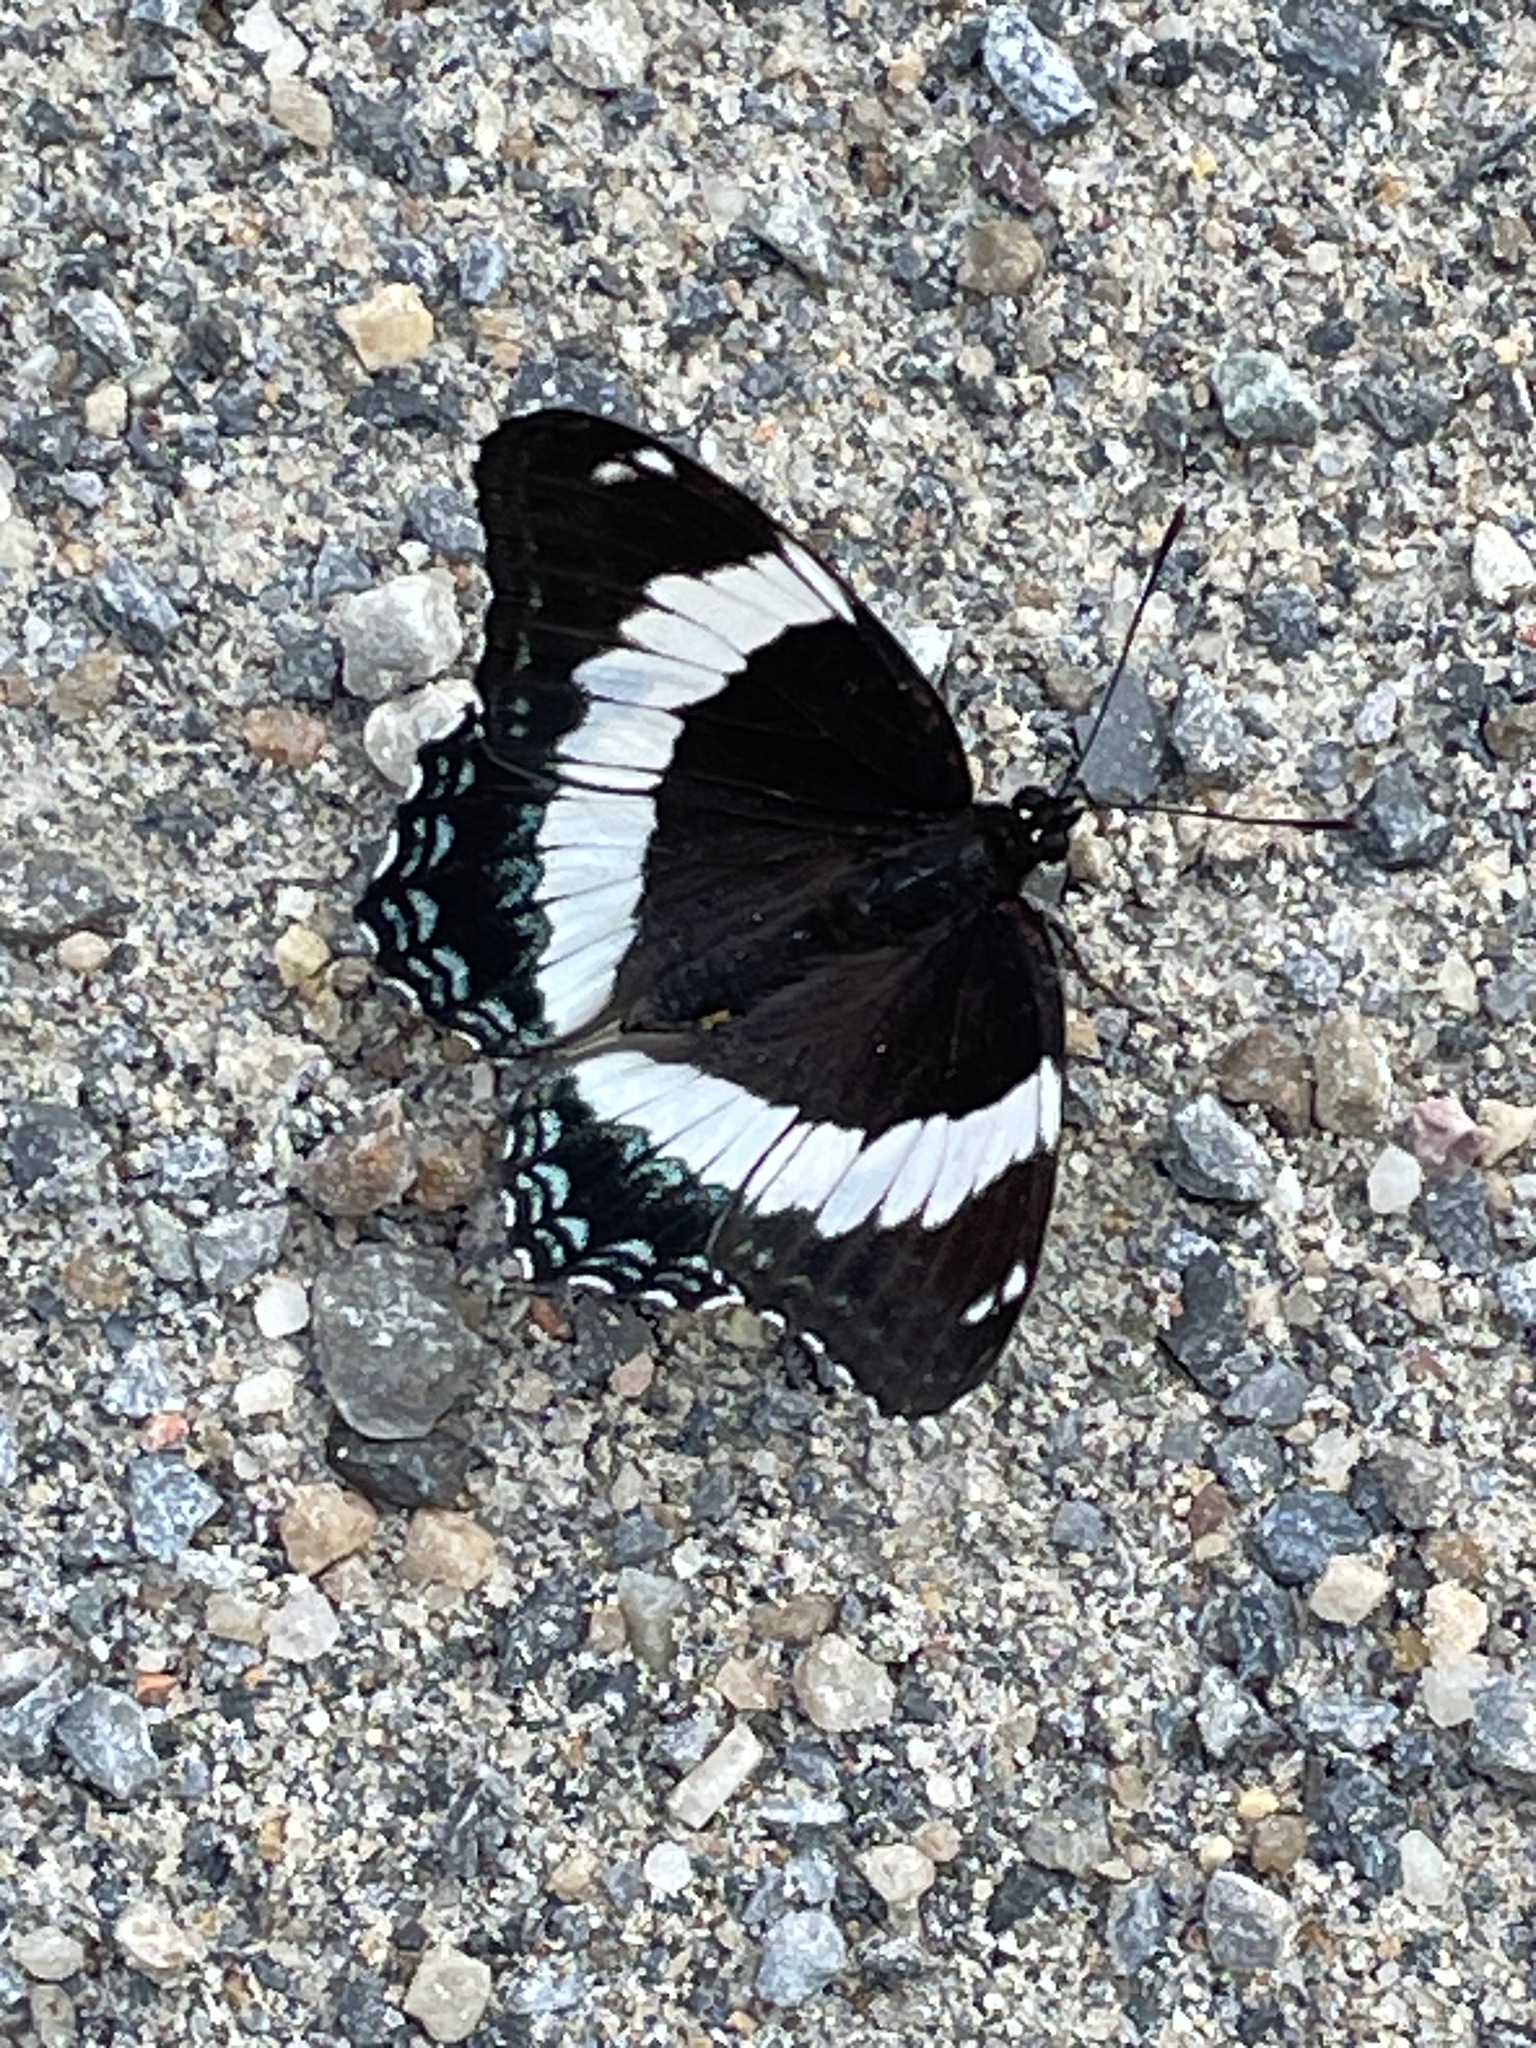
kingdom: Animalia
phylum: Arthropoda
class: Insecta
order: Lepidoptera
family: Nymphalidae
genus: Limenitis
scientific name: Limenitis arthemis
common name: Red-spotted admiral
